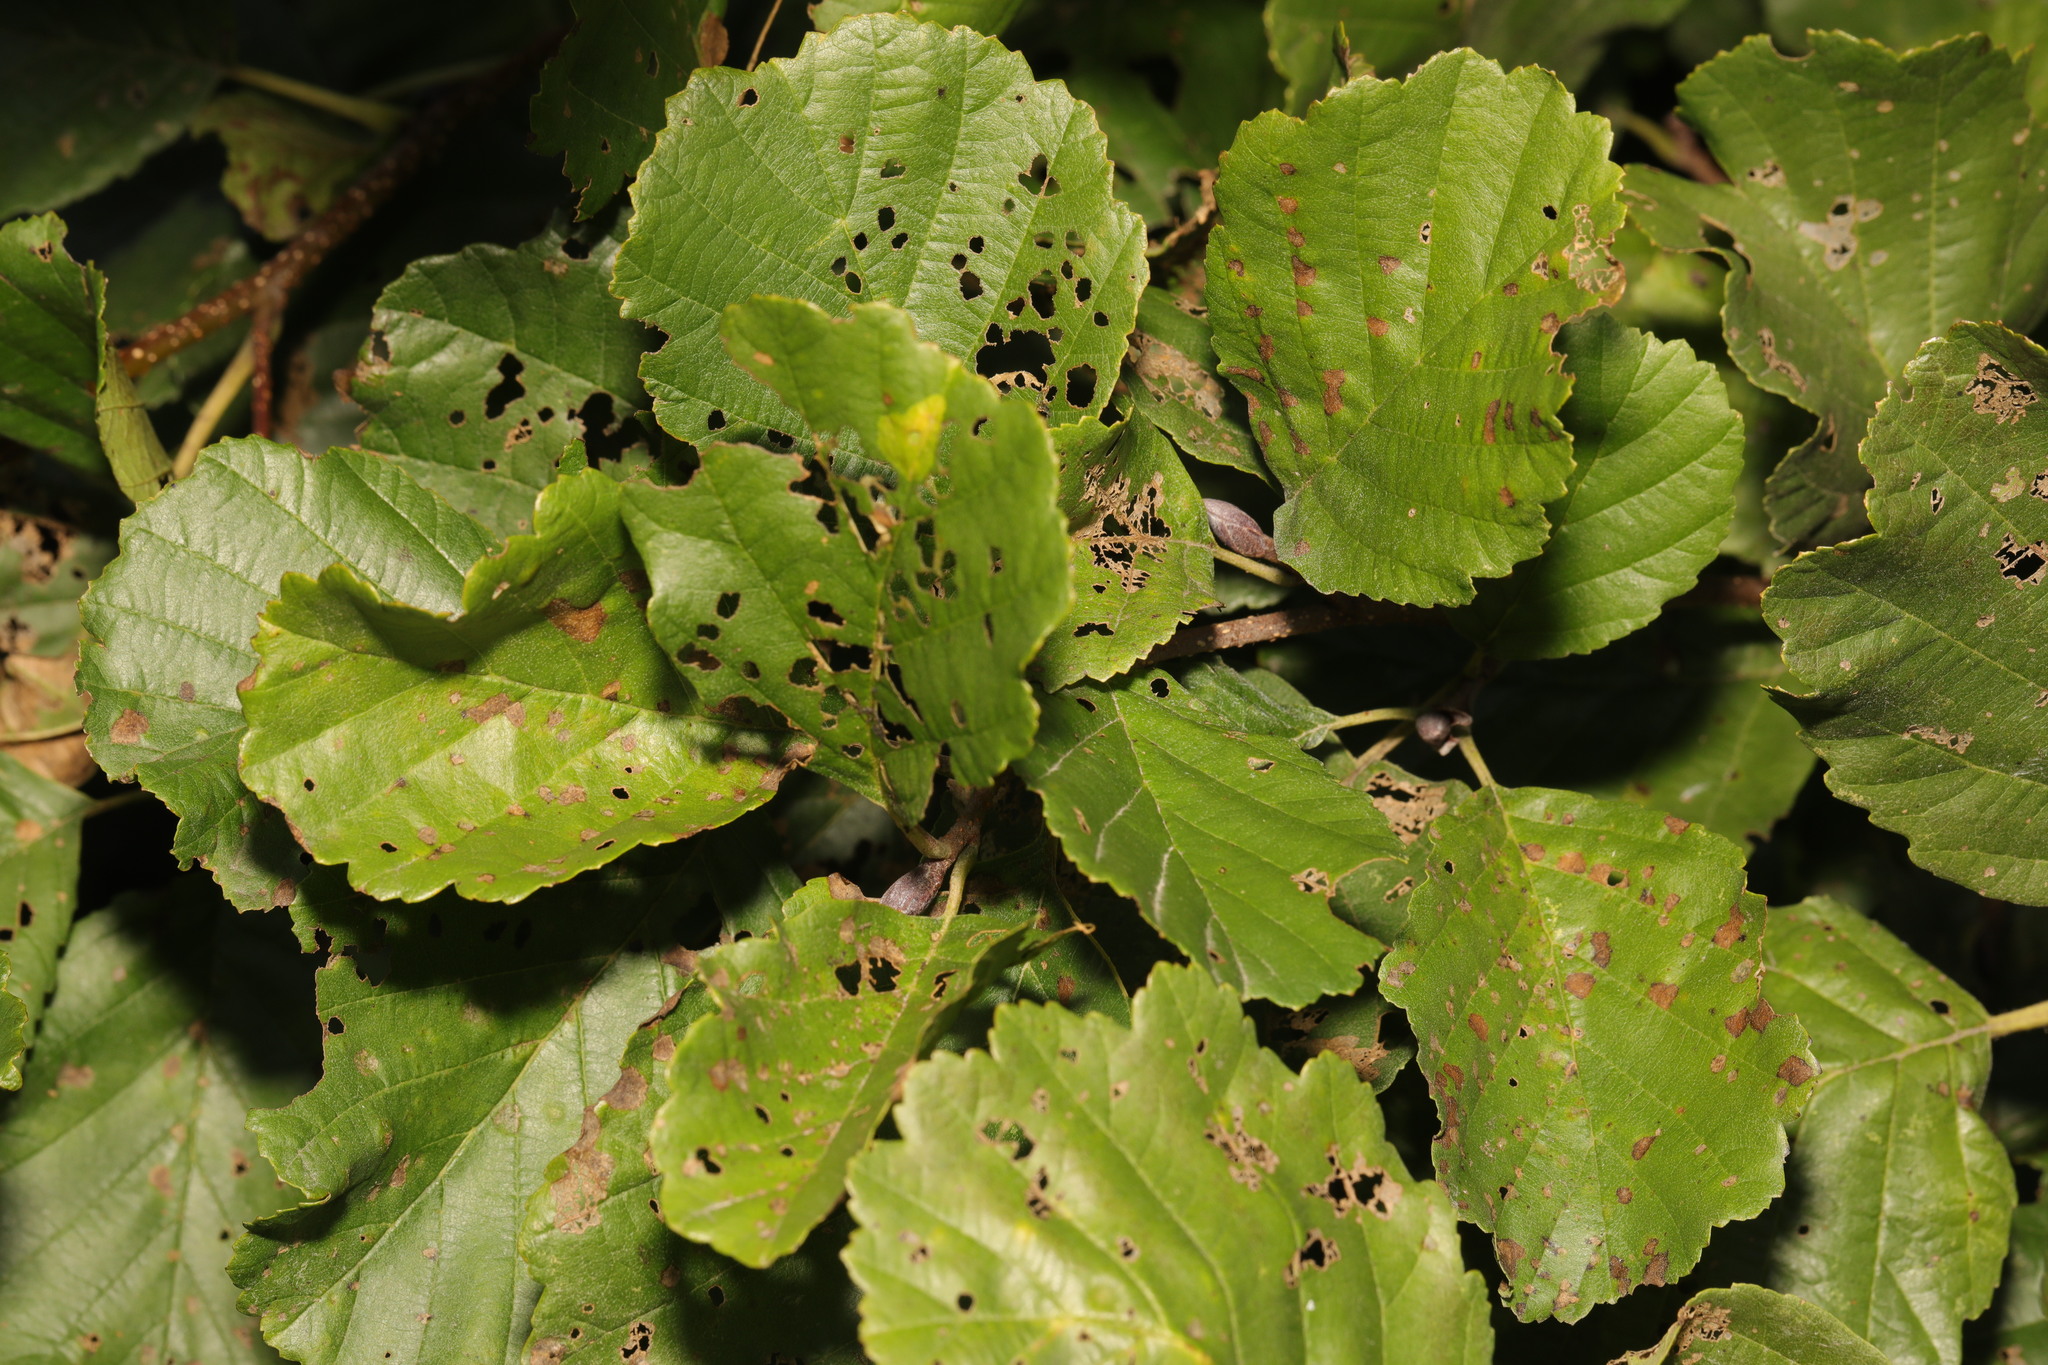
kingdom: Plantae
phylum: Tracheophyta
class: Magnoliopsida
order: Fagales
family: Betulaceae
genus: Alnus
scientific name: Alnus glutinosa
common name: Black alder
